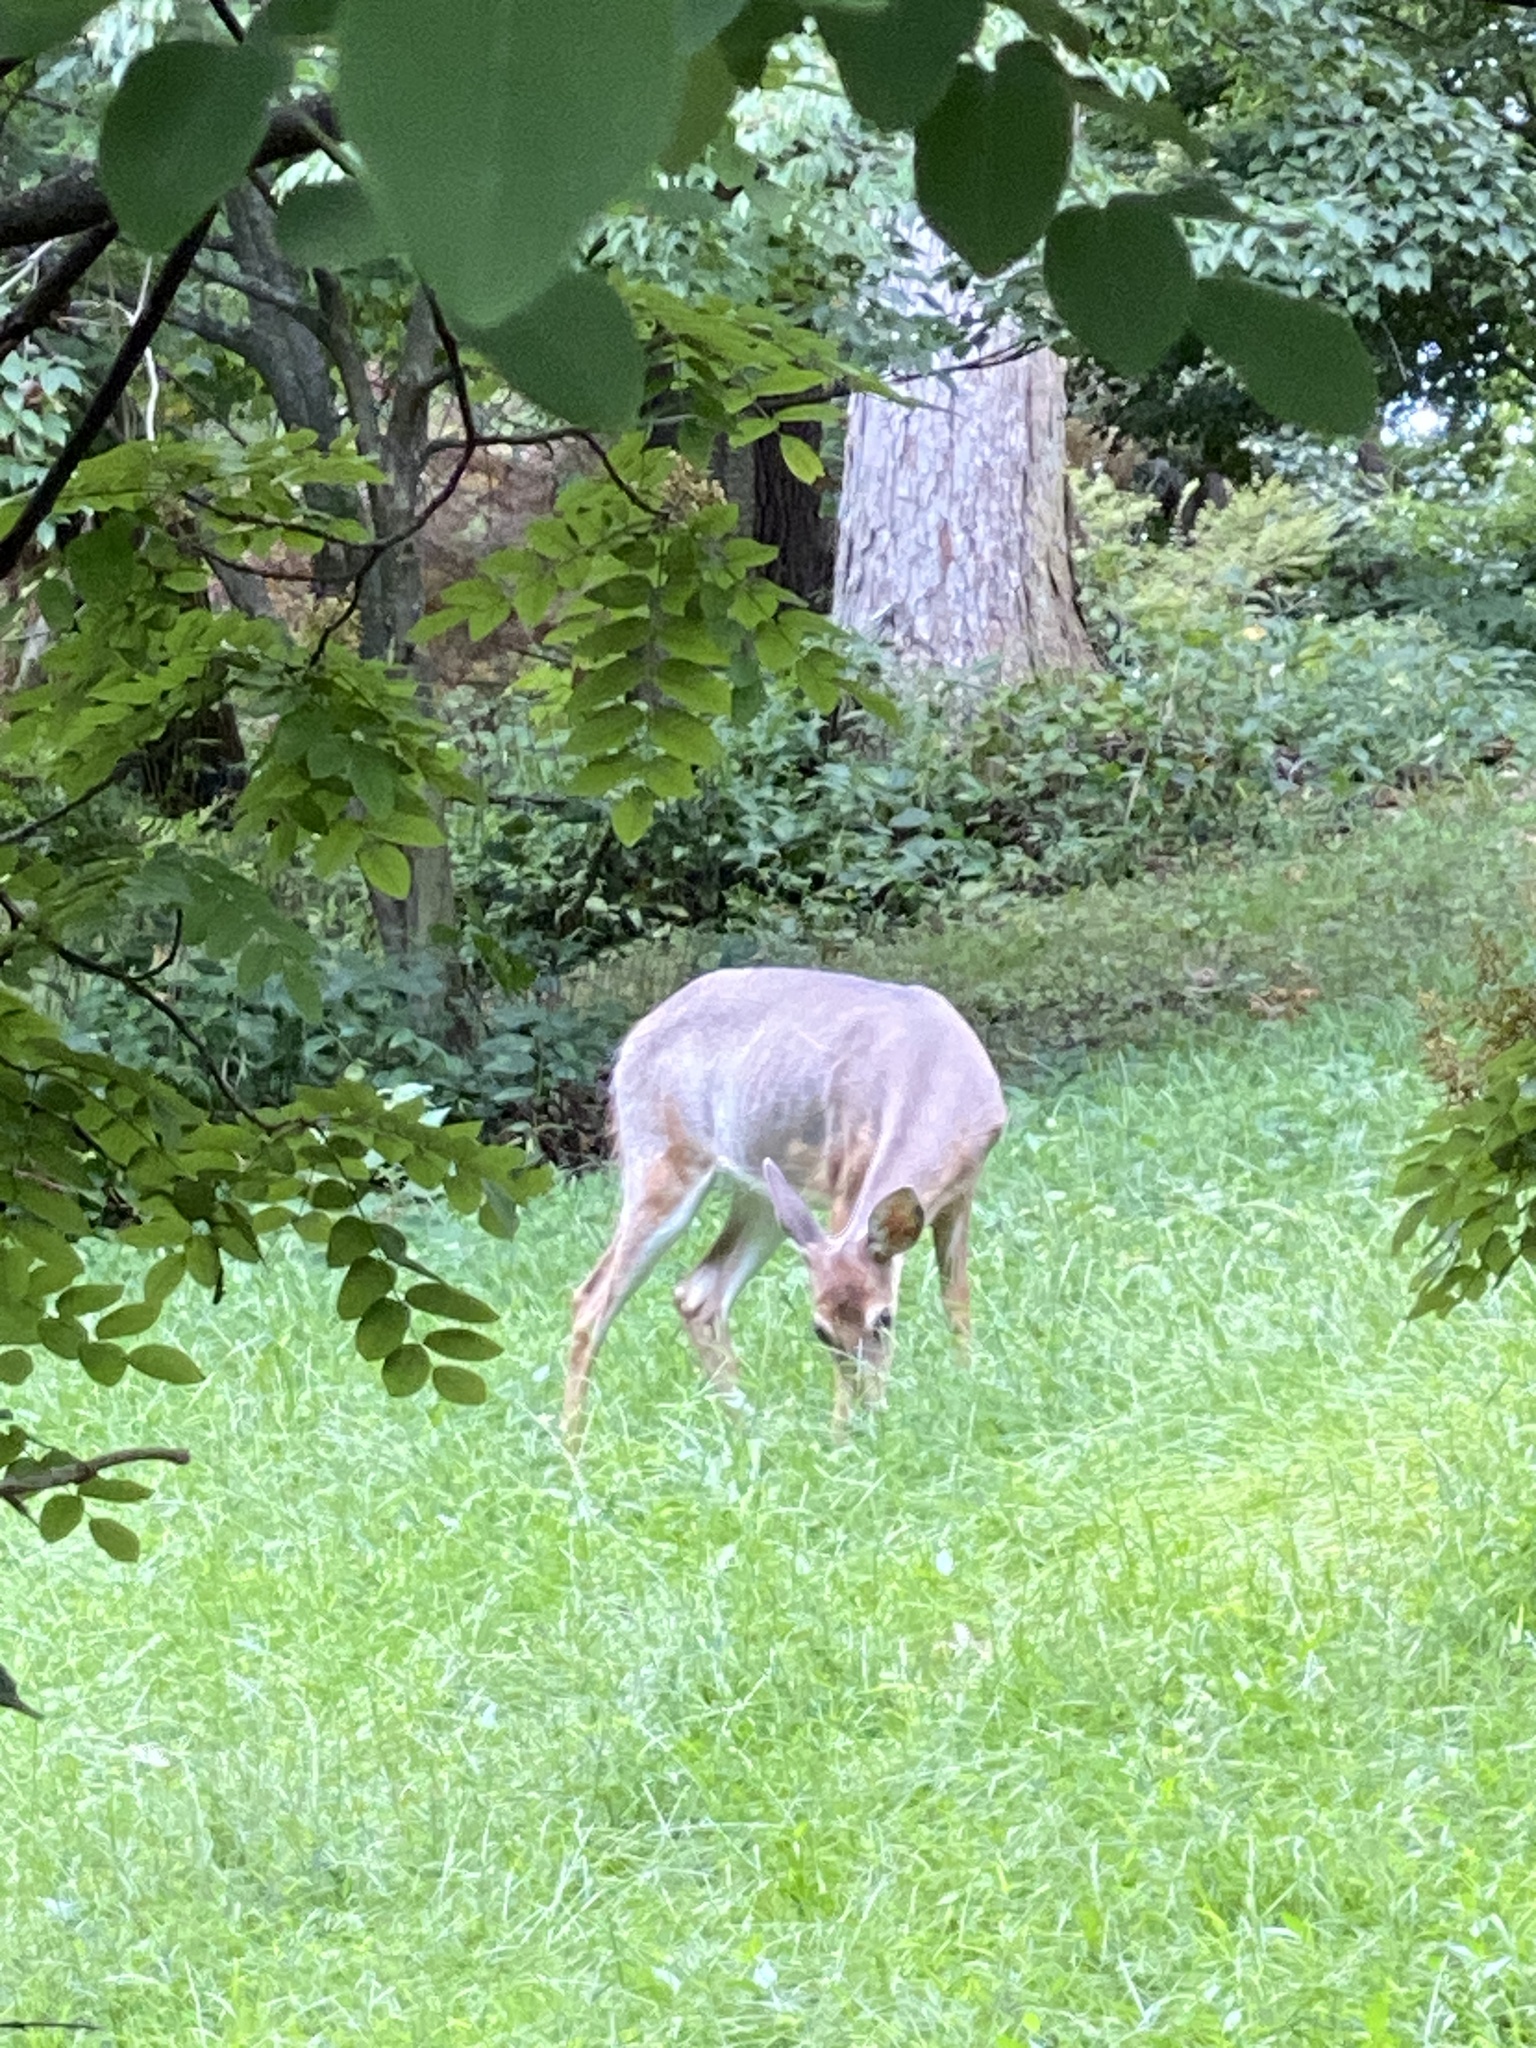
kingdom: Animalia
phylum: Chordata
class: Mammalia
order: Artiodactyla
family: Cervidae
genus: Odocoileus
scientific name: Odocoileus virginianus
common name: White-tailed deer
